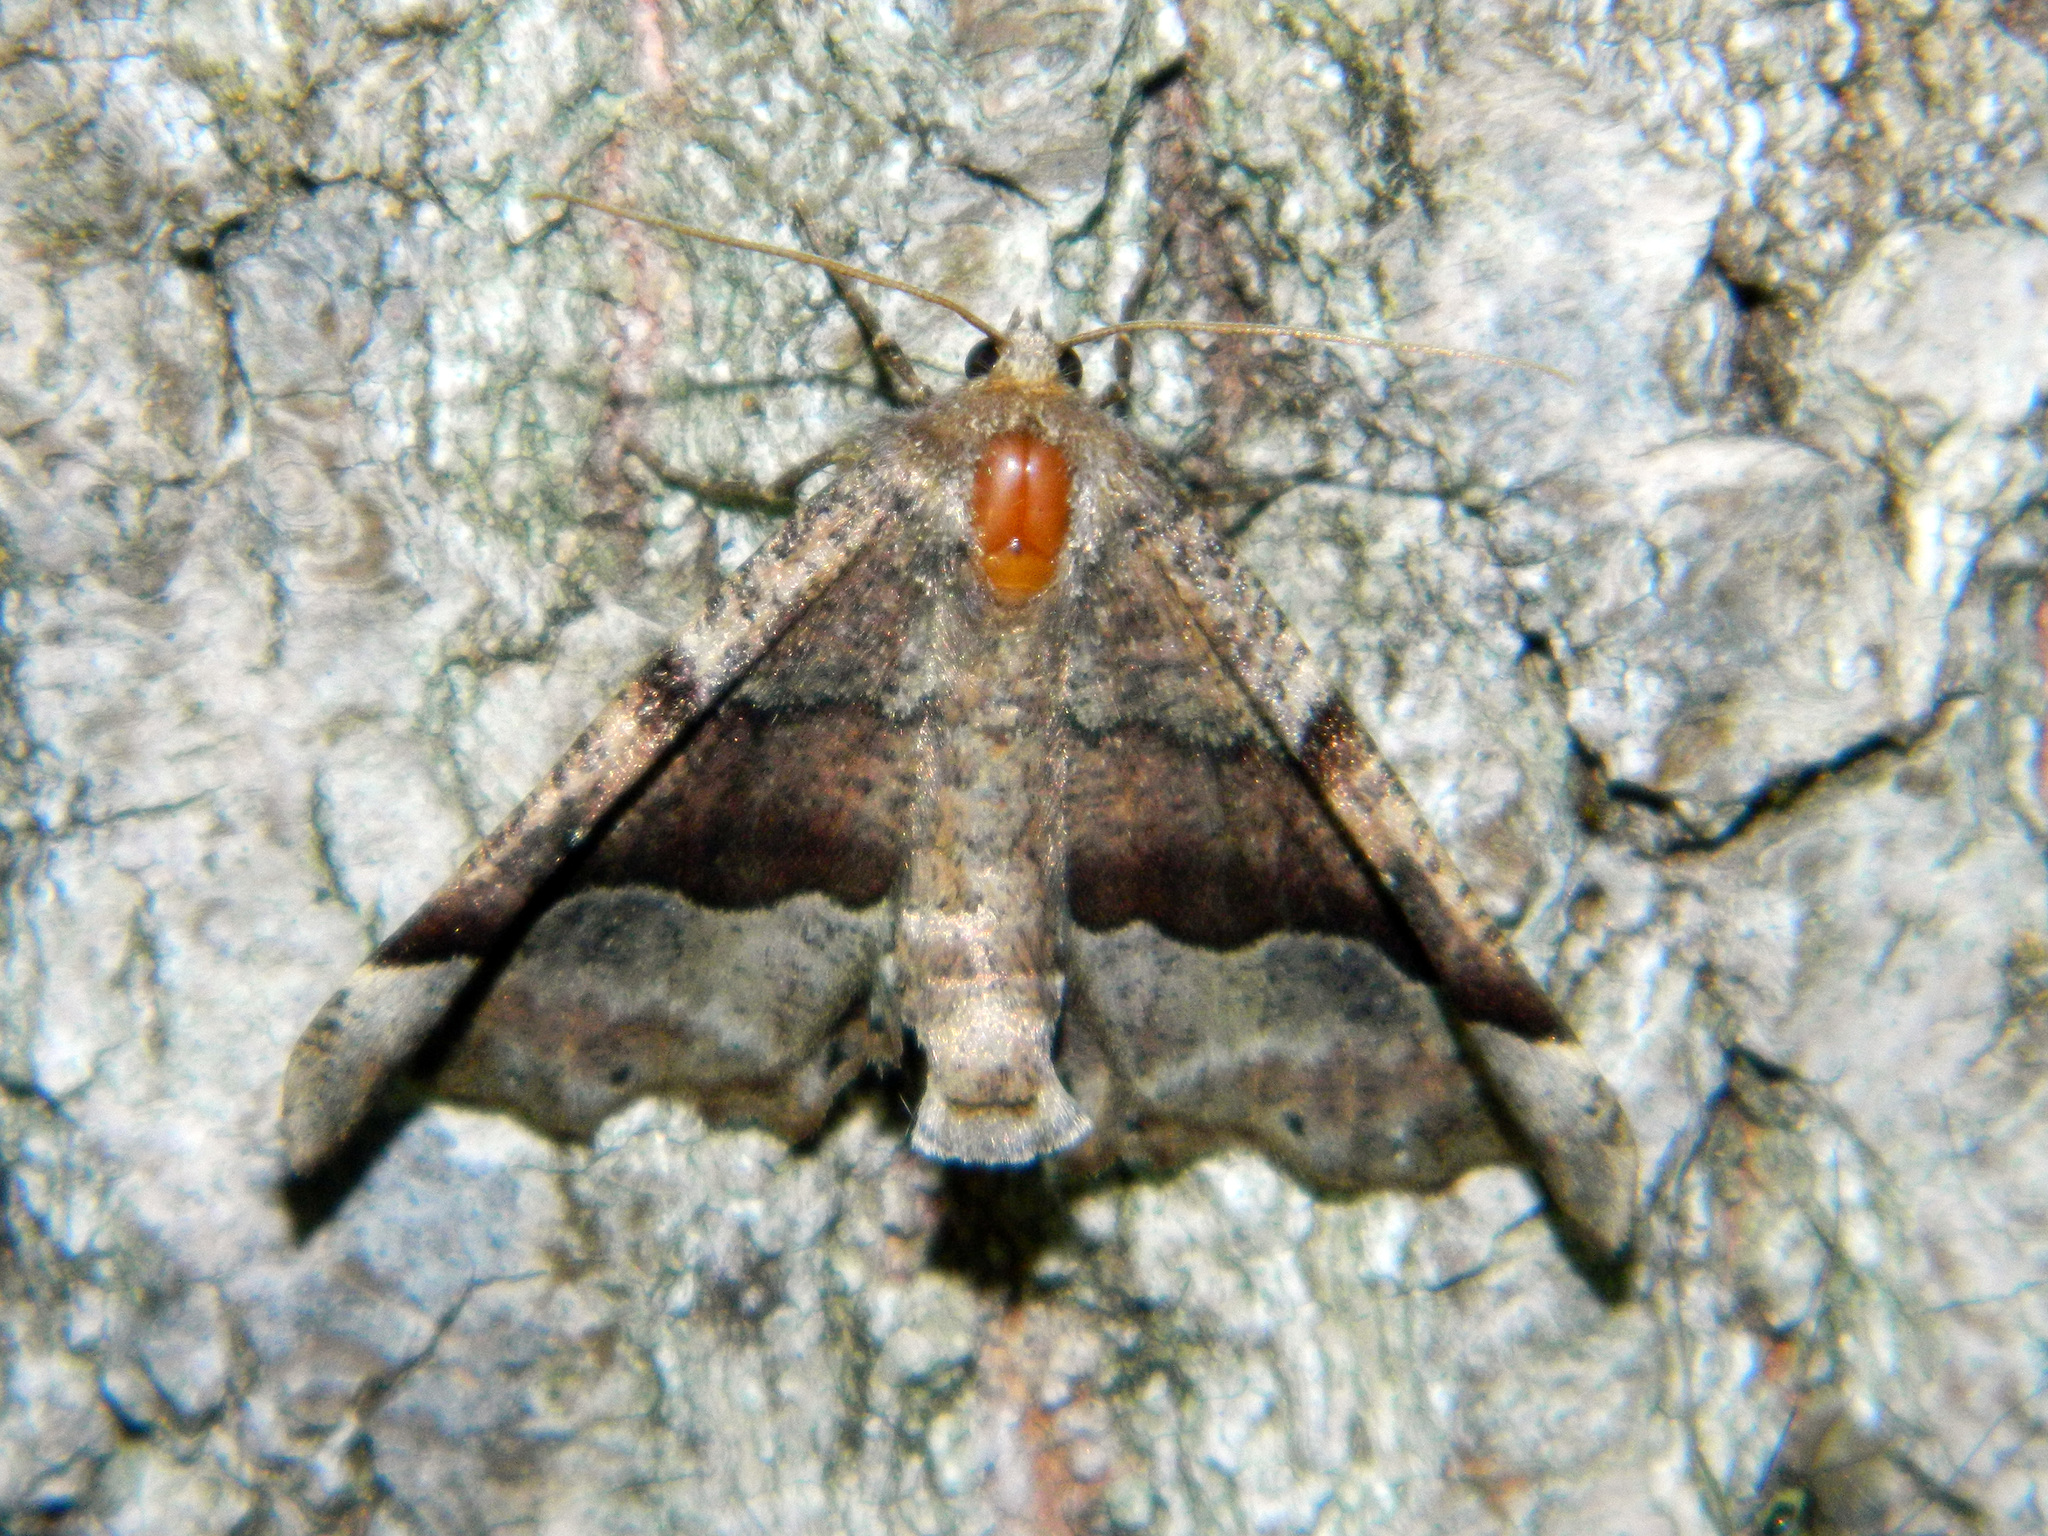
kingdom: Animalia
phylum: Arthropoda
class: Insecta
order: Lepidoptera
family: Geometridae
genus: Pero
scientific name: Pero morrisonaria
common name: Morrison's pero
